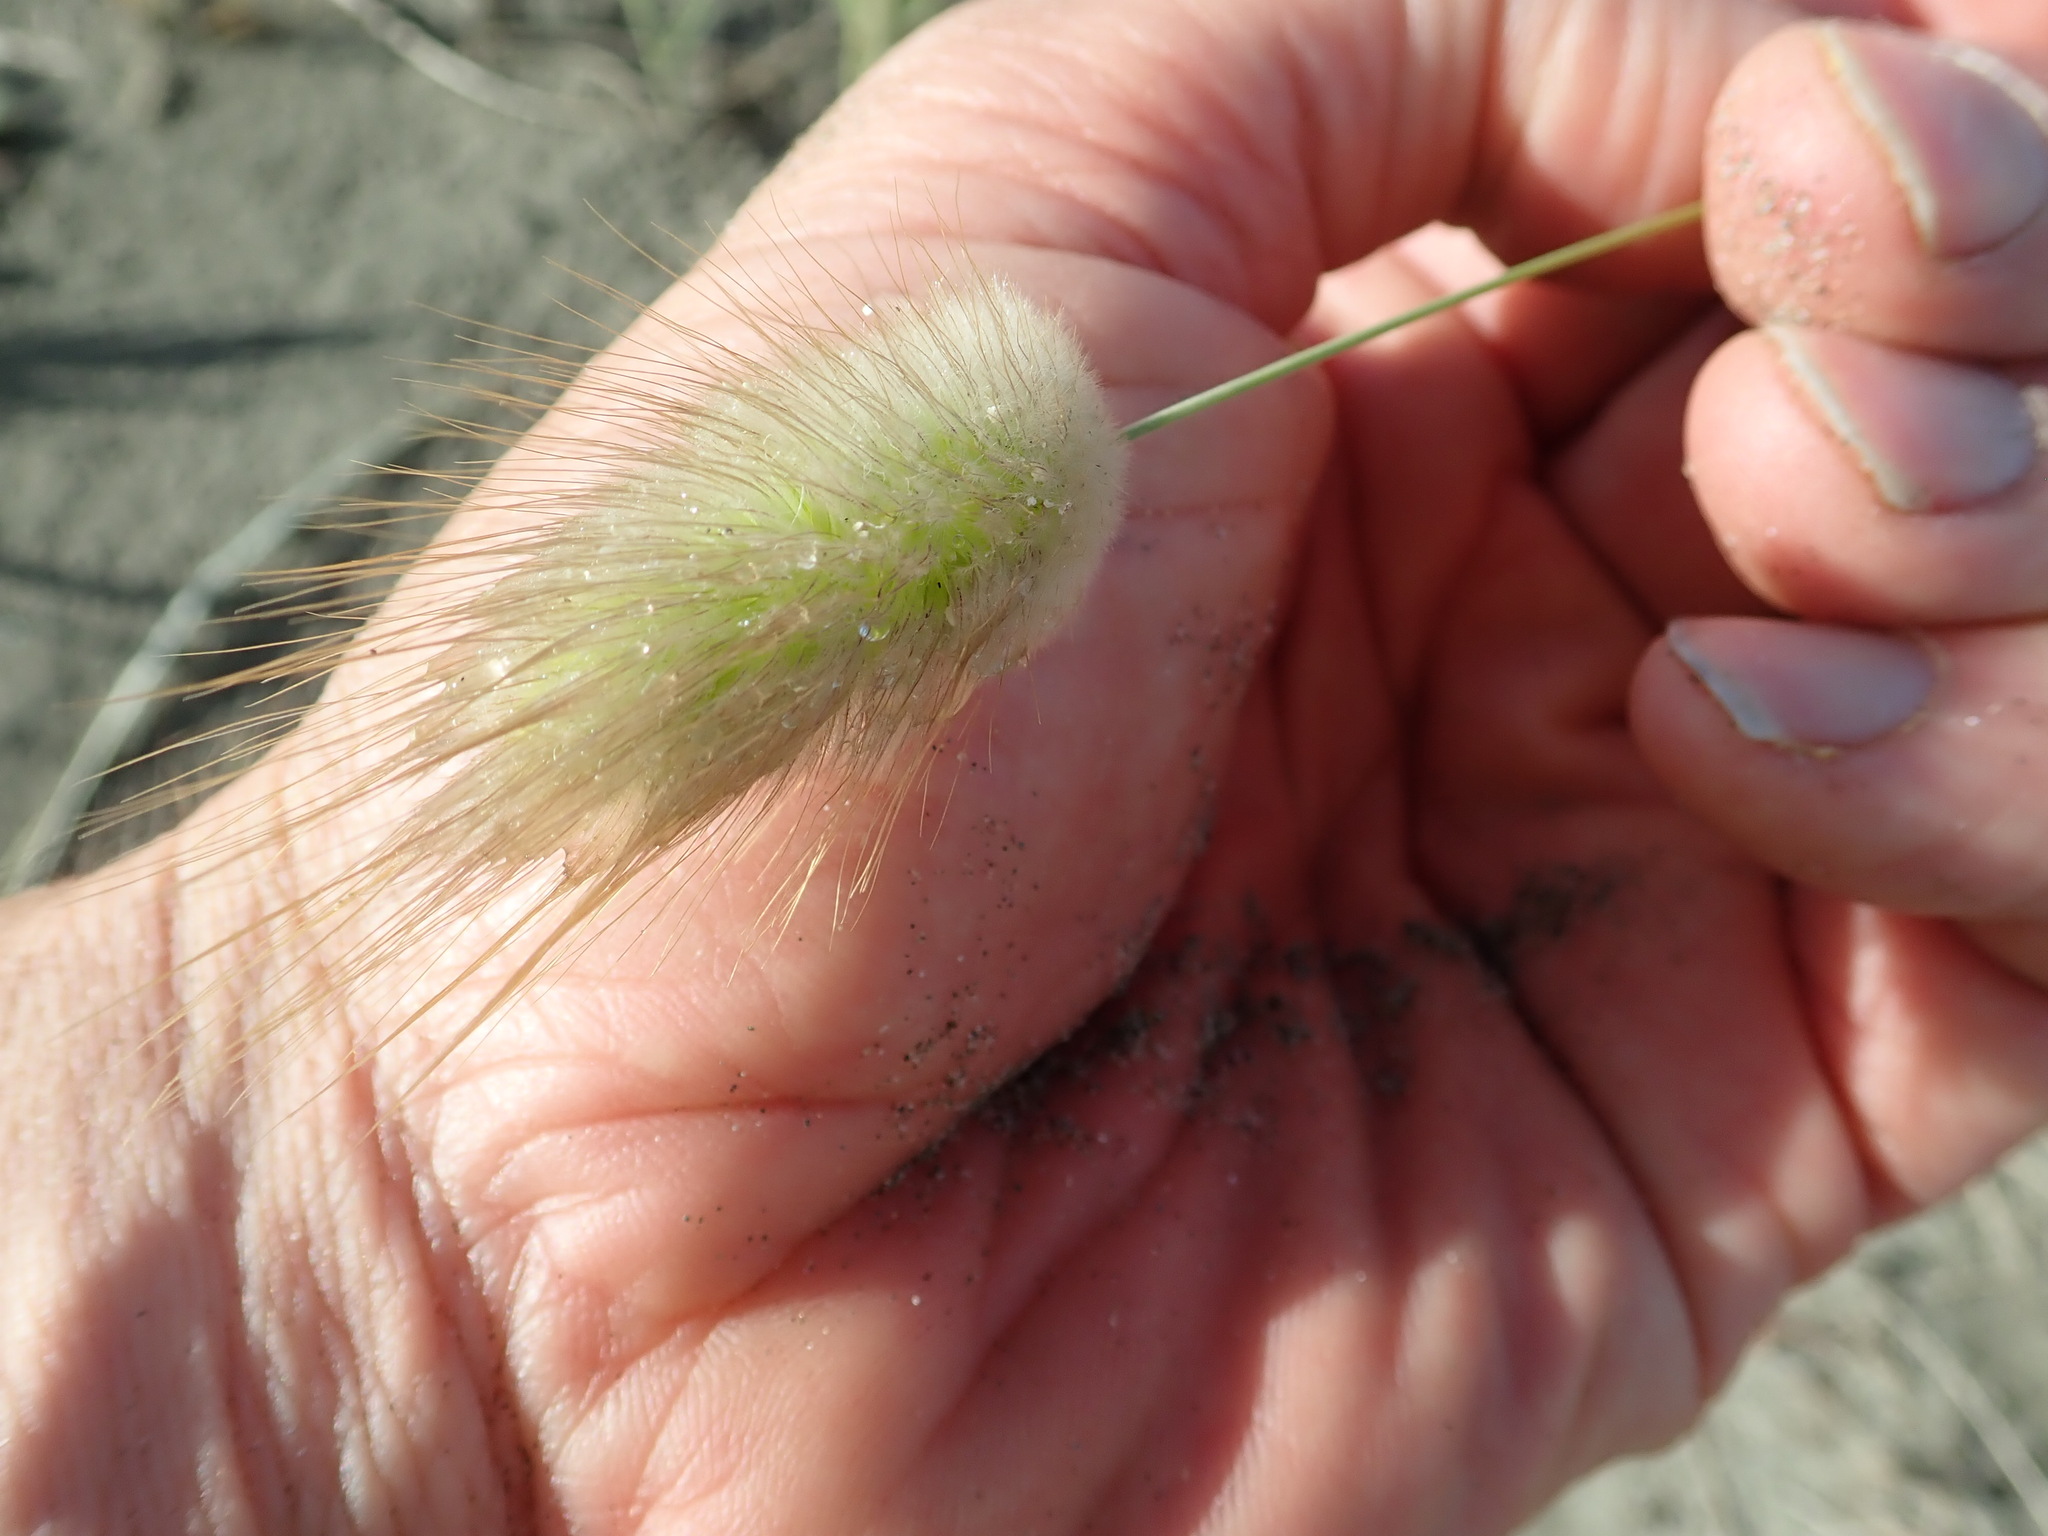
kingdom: Plantae
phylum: Tracheophyta
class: Liliopsida
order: Poales
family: Poaceae
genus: Lagurus
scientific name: Lagurus ovatus
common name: Hare's-tail
